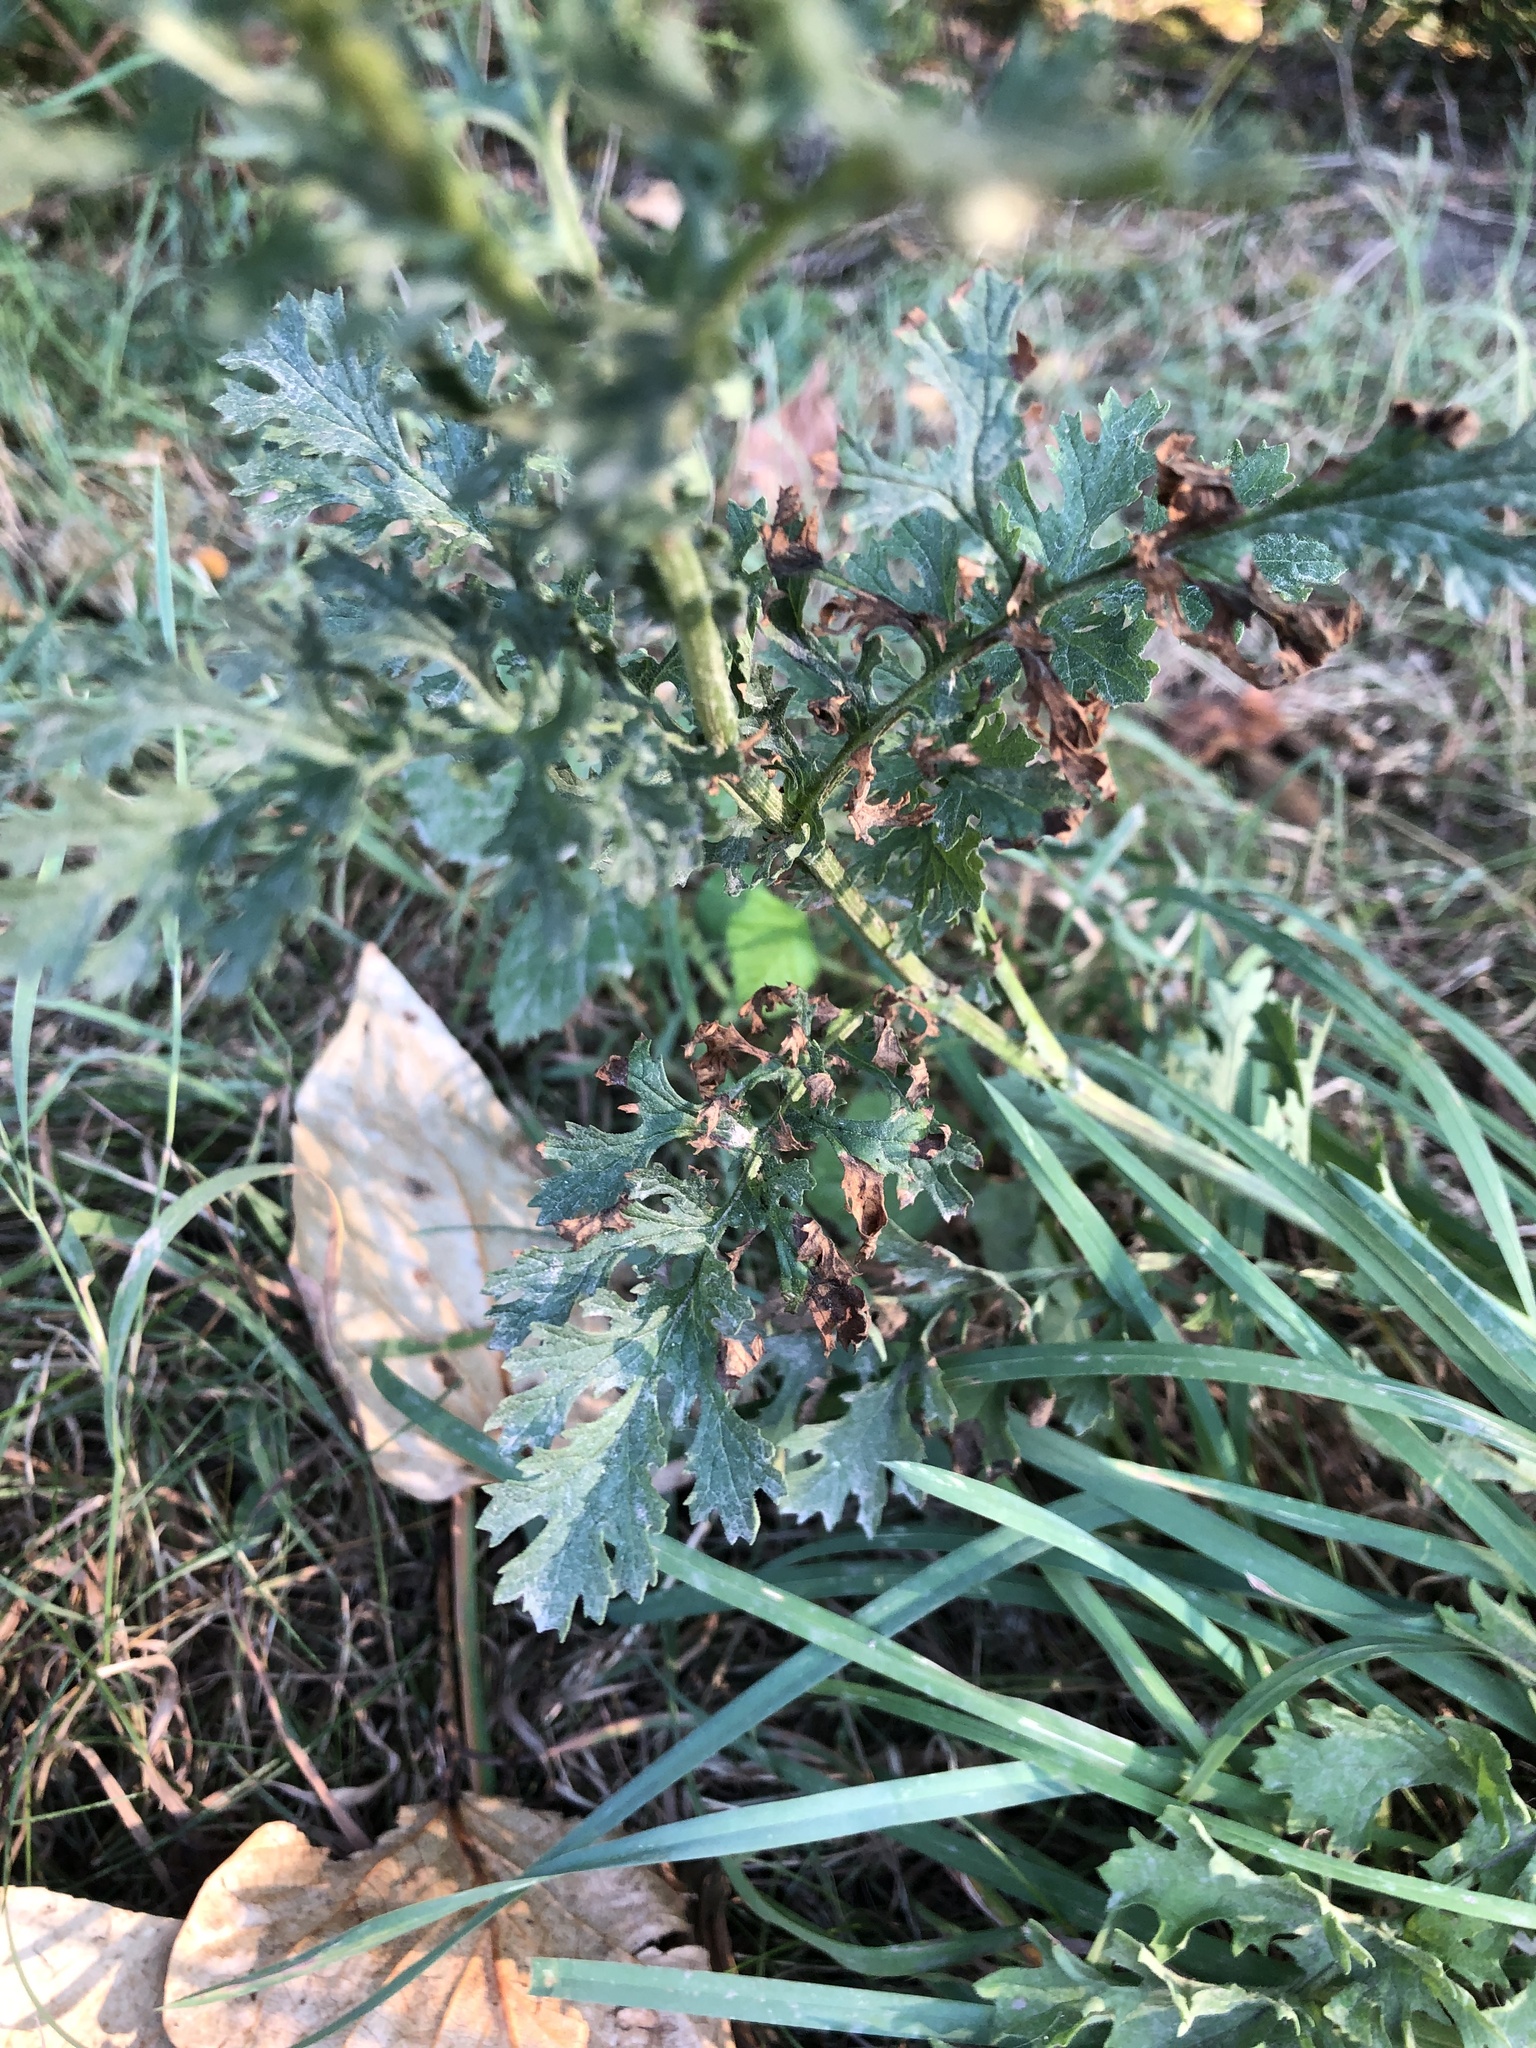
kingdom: Plantae
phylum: Tracheophyta
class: Magnoliopsida
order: Asterales
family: Asteraceae
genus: Jacobaea
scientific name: Jacobaea vulgaris
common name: Stinking willie
